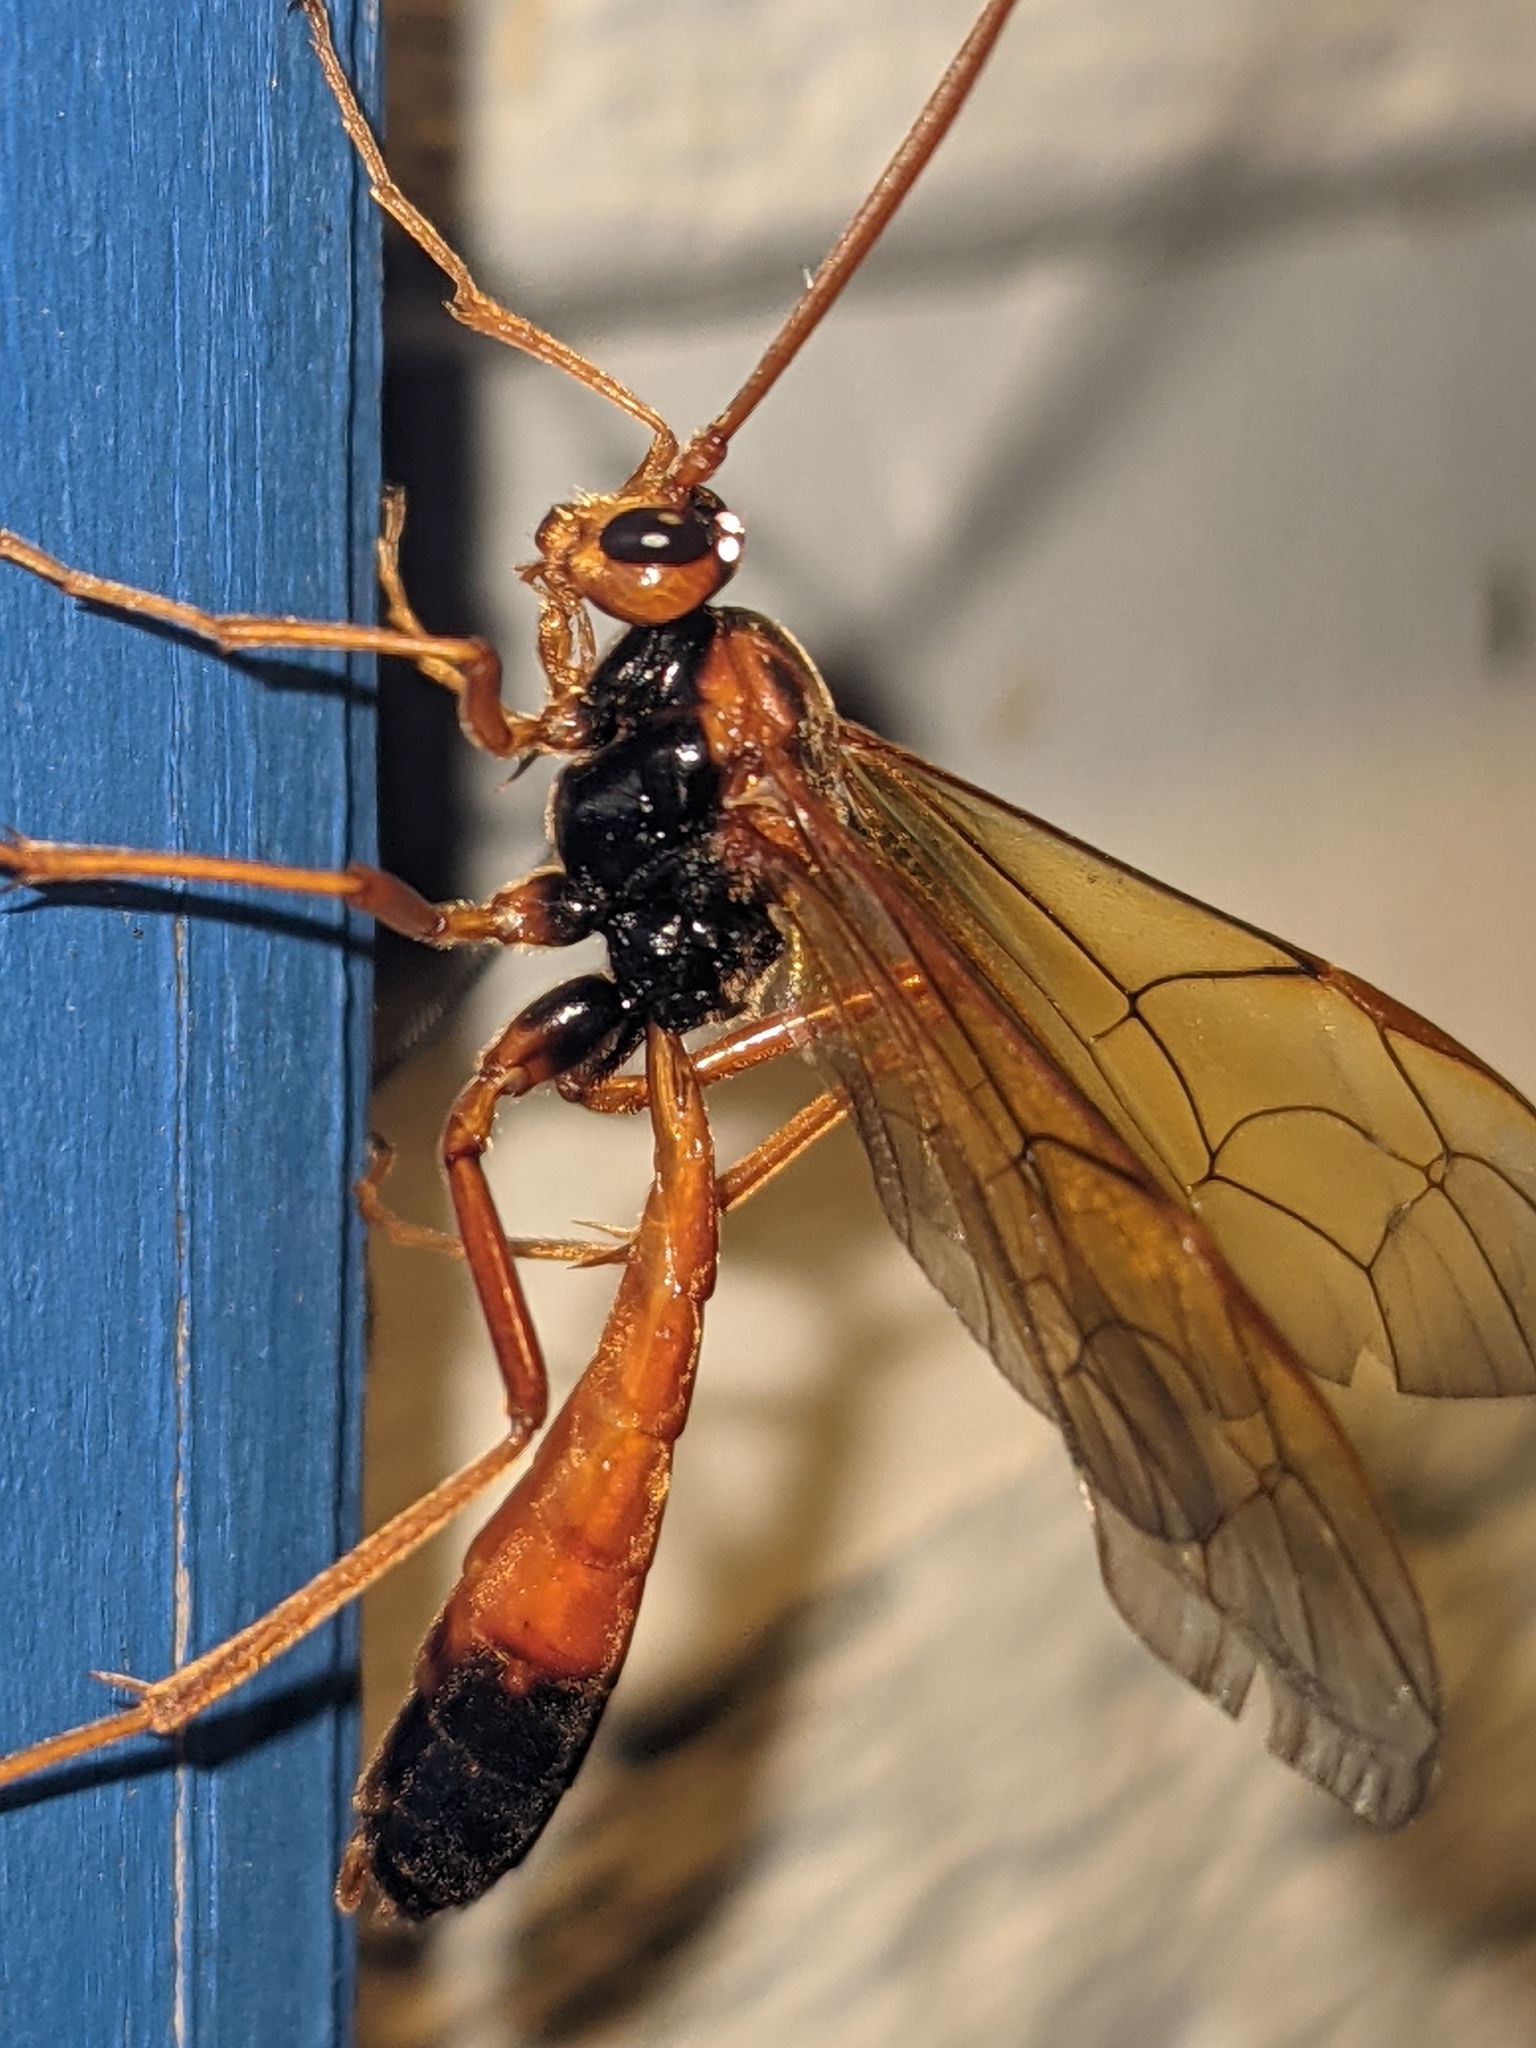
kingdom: Animalia
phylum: Arthropoda
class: Insecta
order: Hymenoptera
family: Ichneumonidae
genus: Opheltes
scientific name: Opheltes glaucopterus
